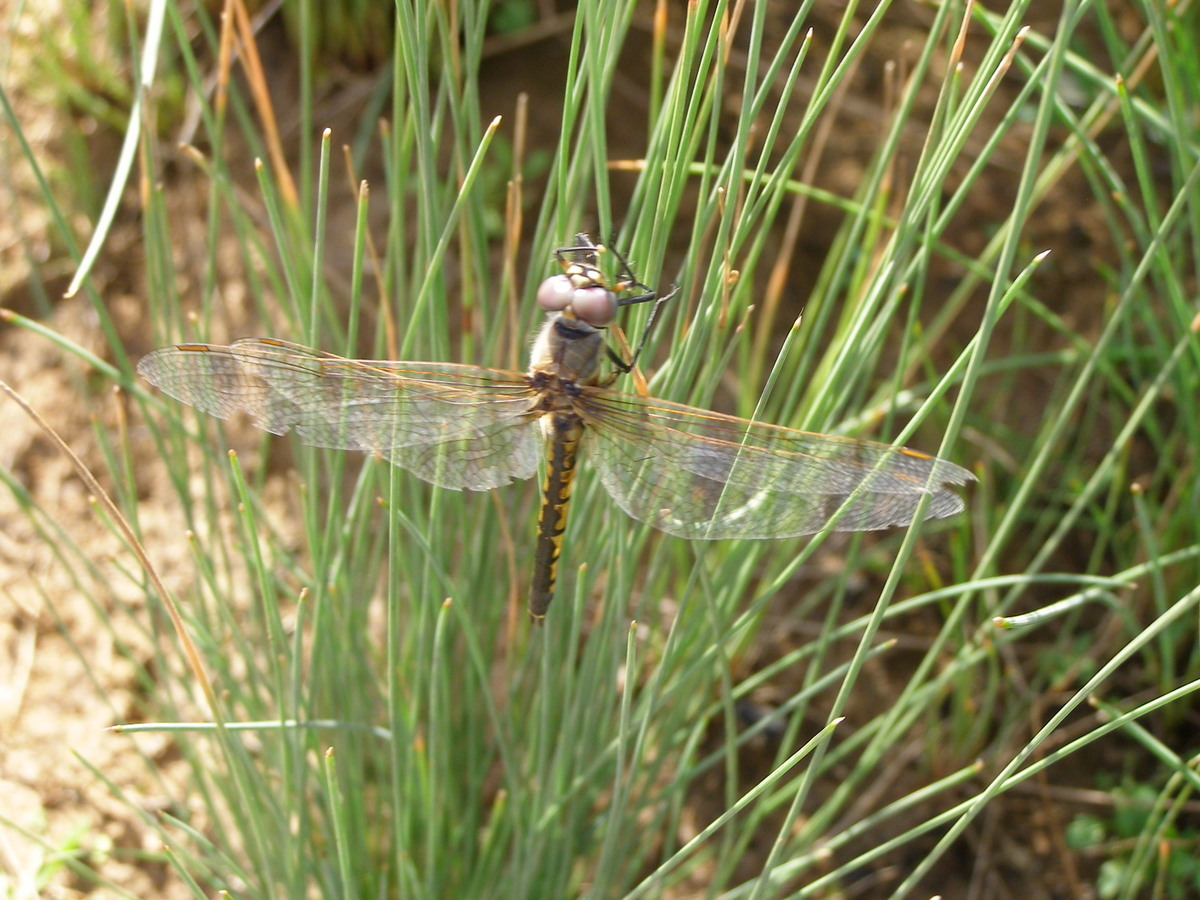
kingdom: Animalia
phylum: Arthropoda
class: Insecta
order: Odonata
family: Corduliidae
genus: Hemicordulia
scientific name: Hemicordulia tau
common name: Tau emerald
